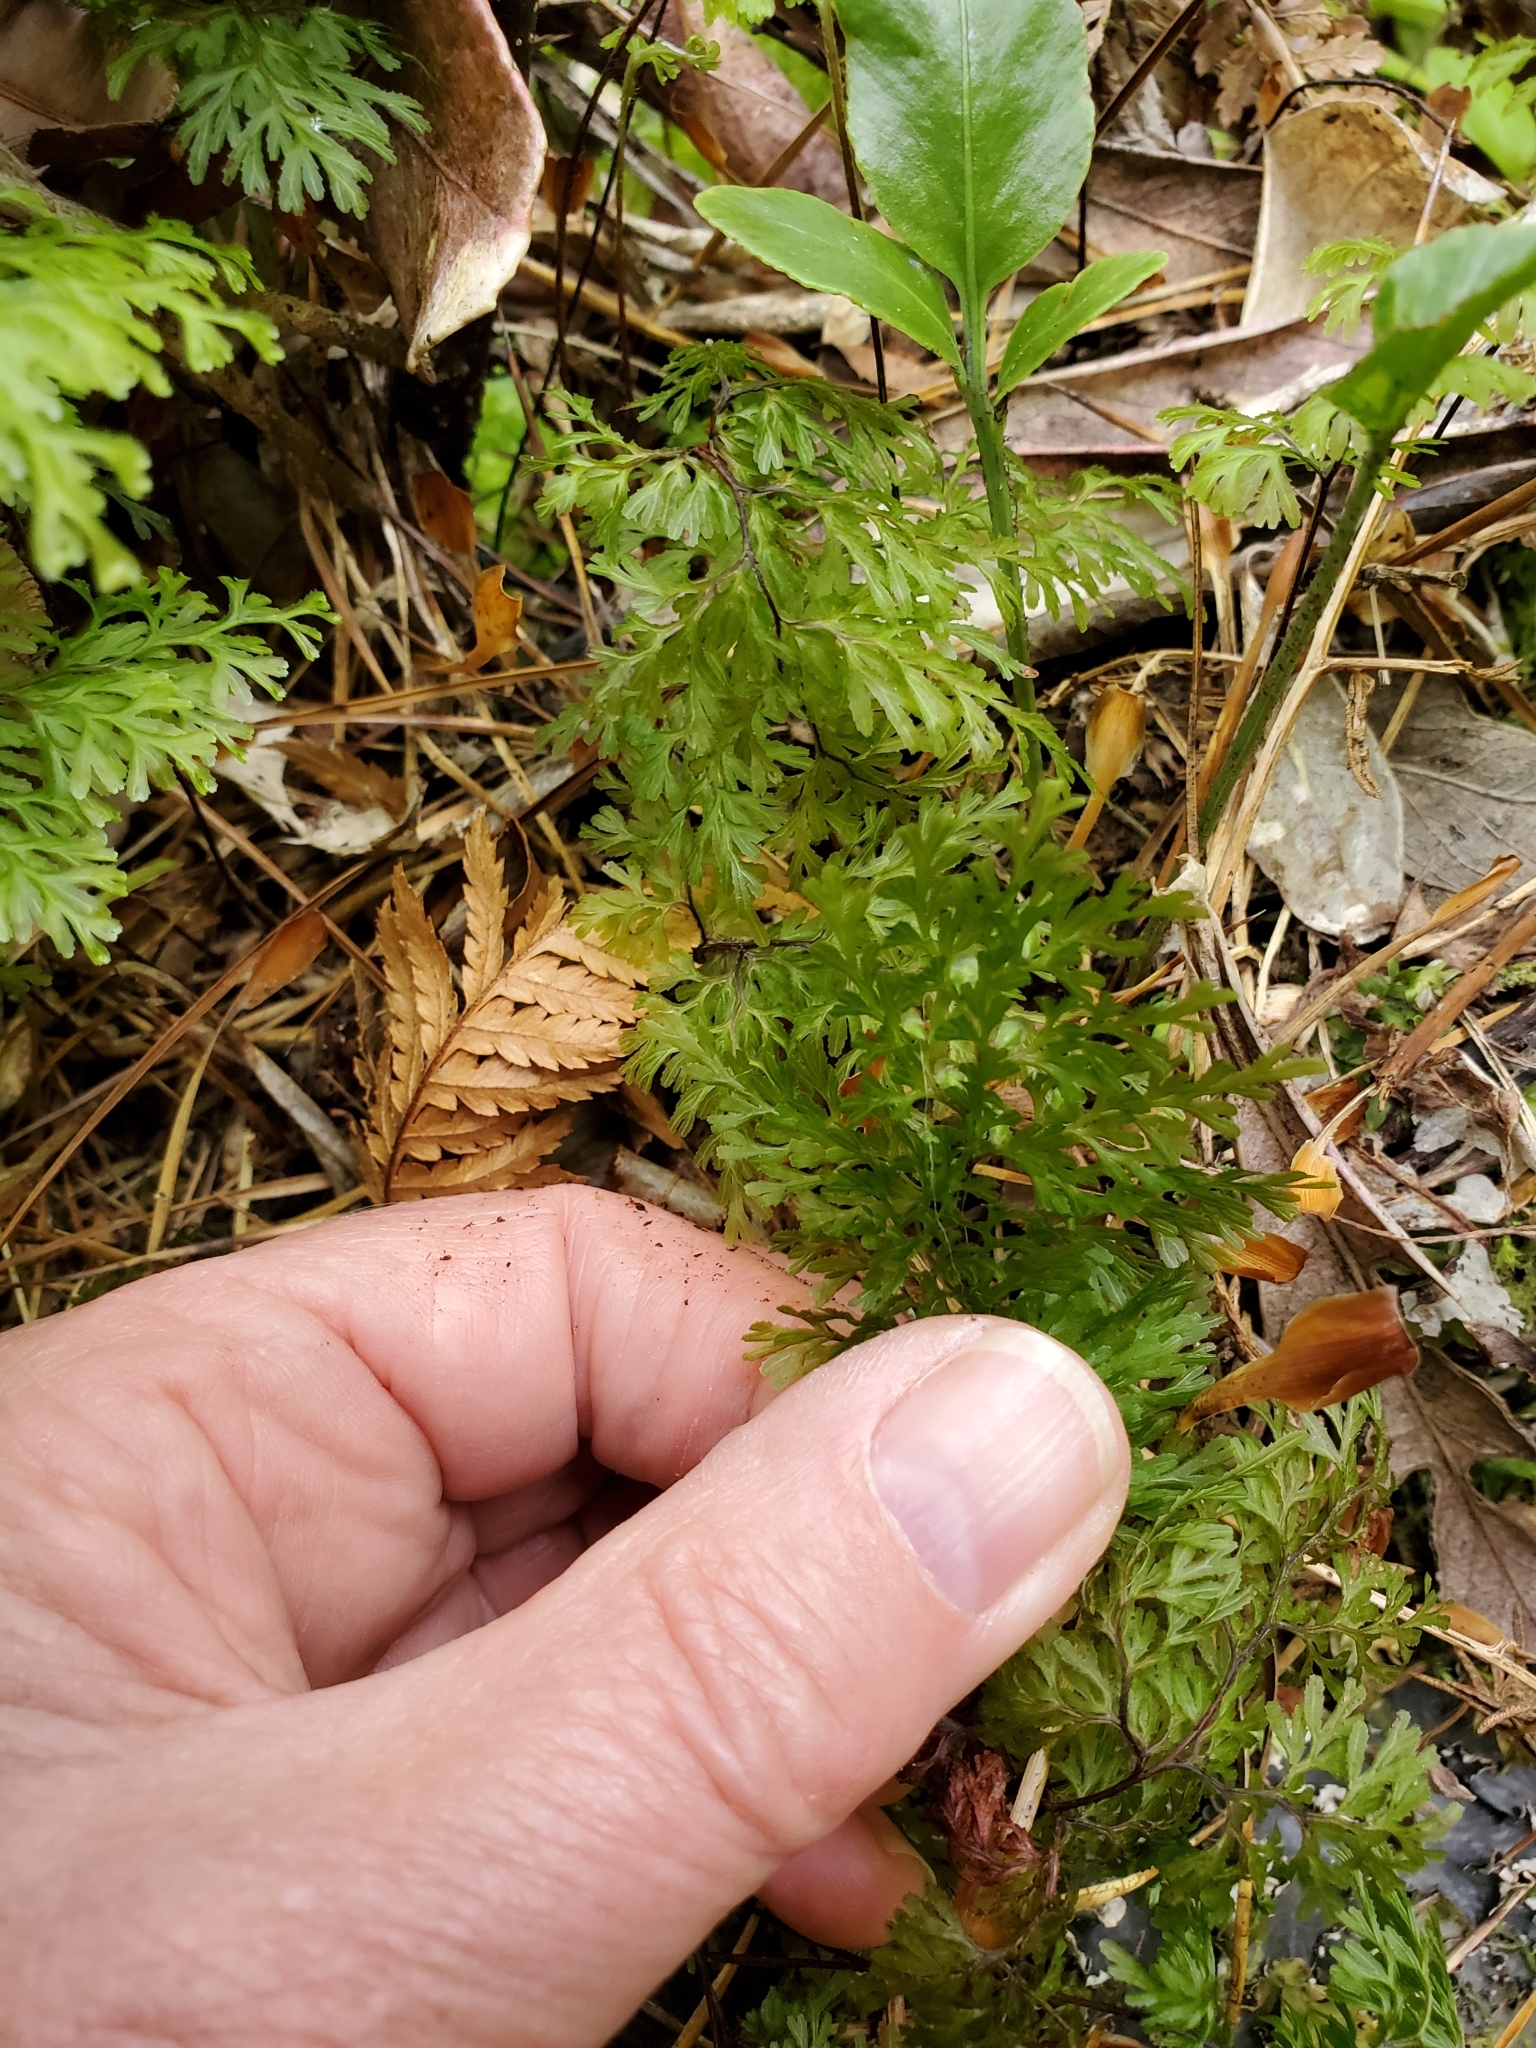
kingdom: Plantae
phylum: Tracheophyta
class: Polypodiopsida
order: Hymenophyllales
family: Hymenophyllaceae
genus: Hymenophyllum
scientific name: Hymenophyllum multifidum
